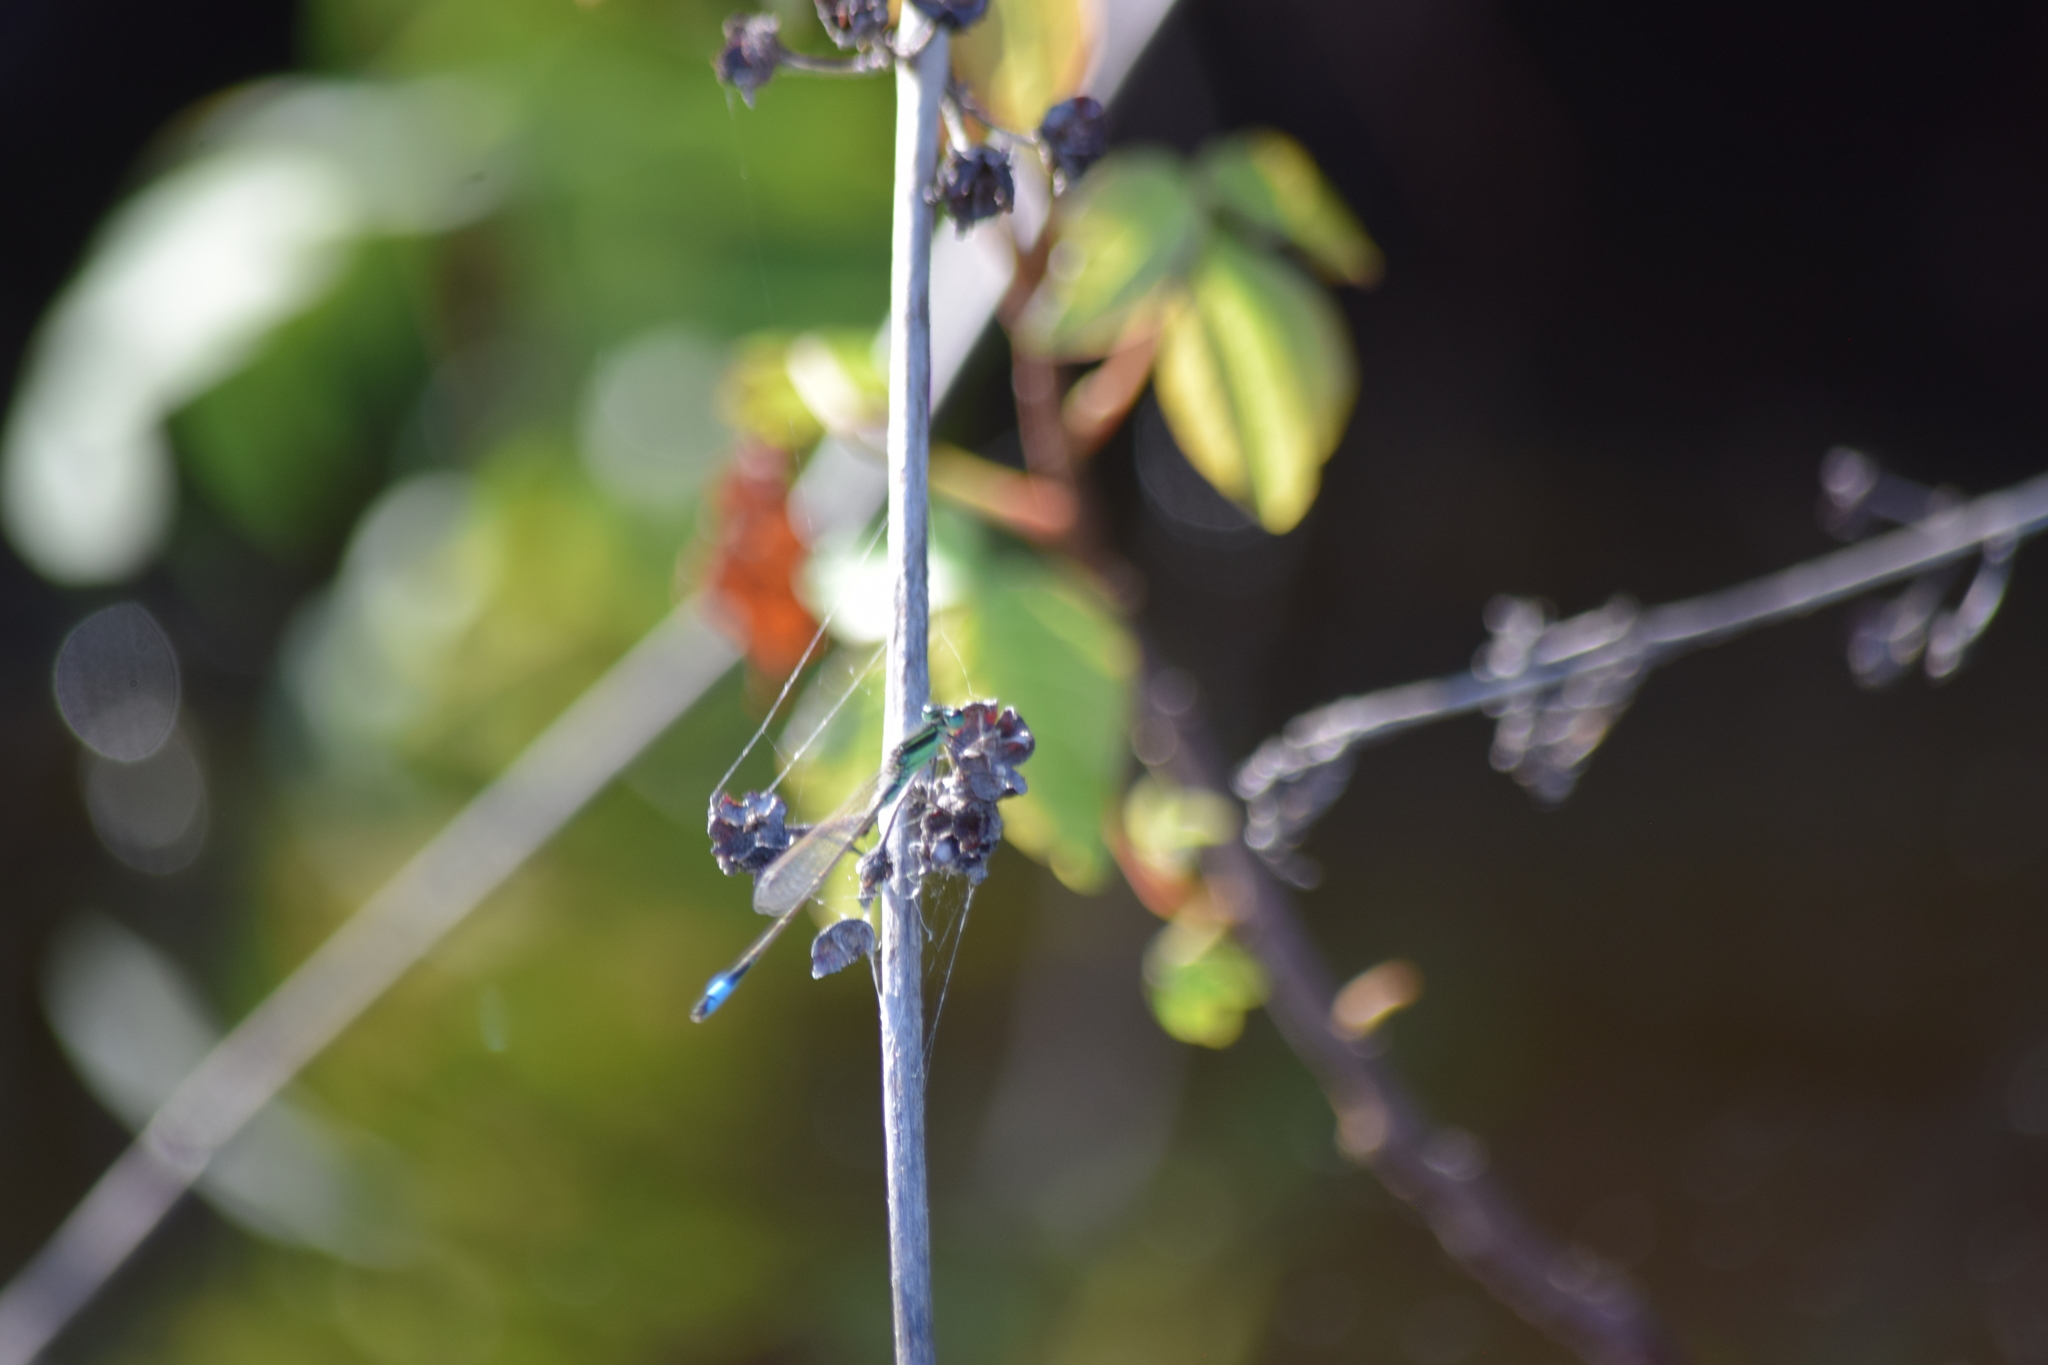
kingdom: Animalia
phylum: Arthropoda
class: Insecta
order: Odonata
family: Coenagrionidae
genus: Ischnura
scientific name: Ischnura ramburii
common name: Rambur's forktail
